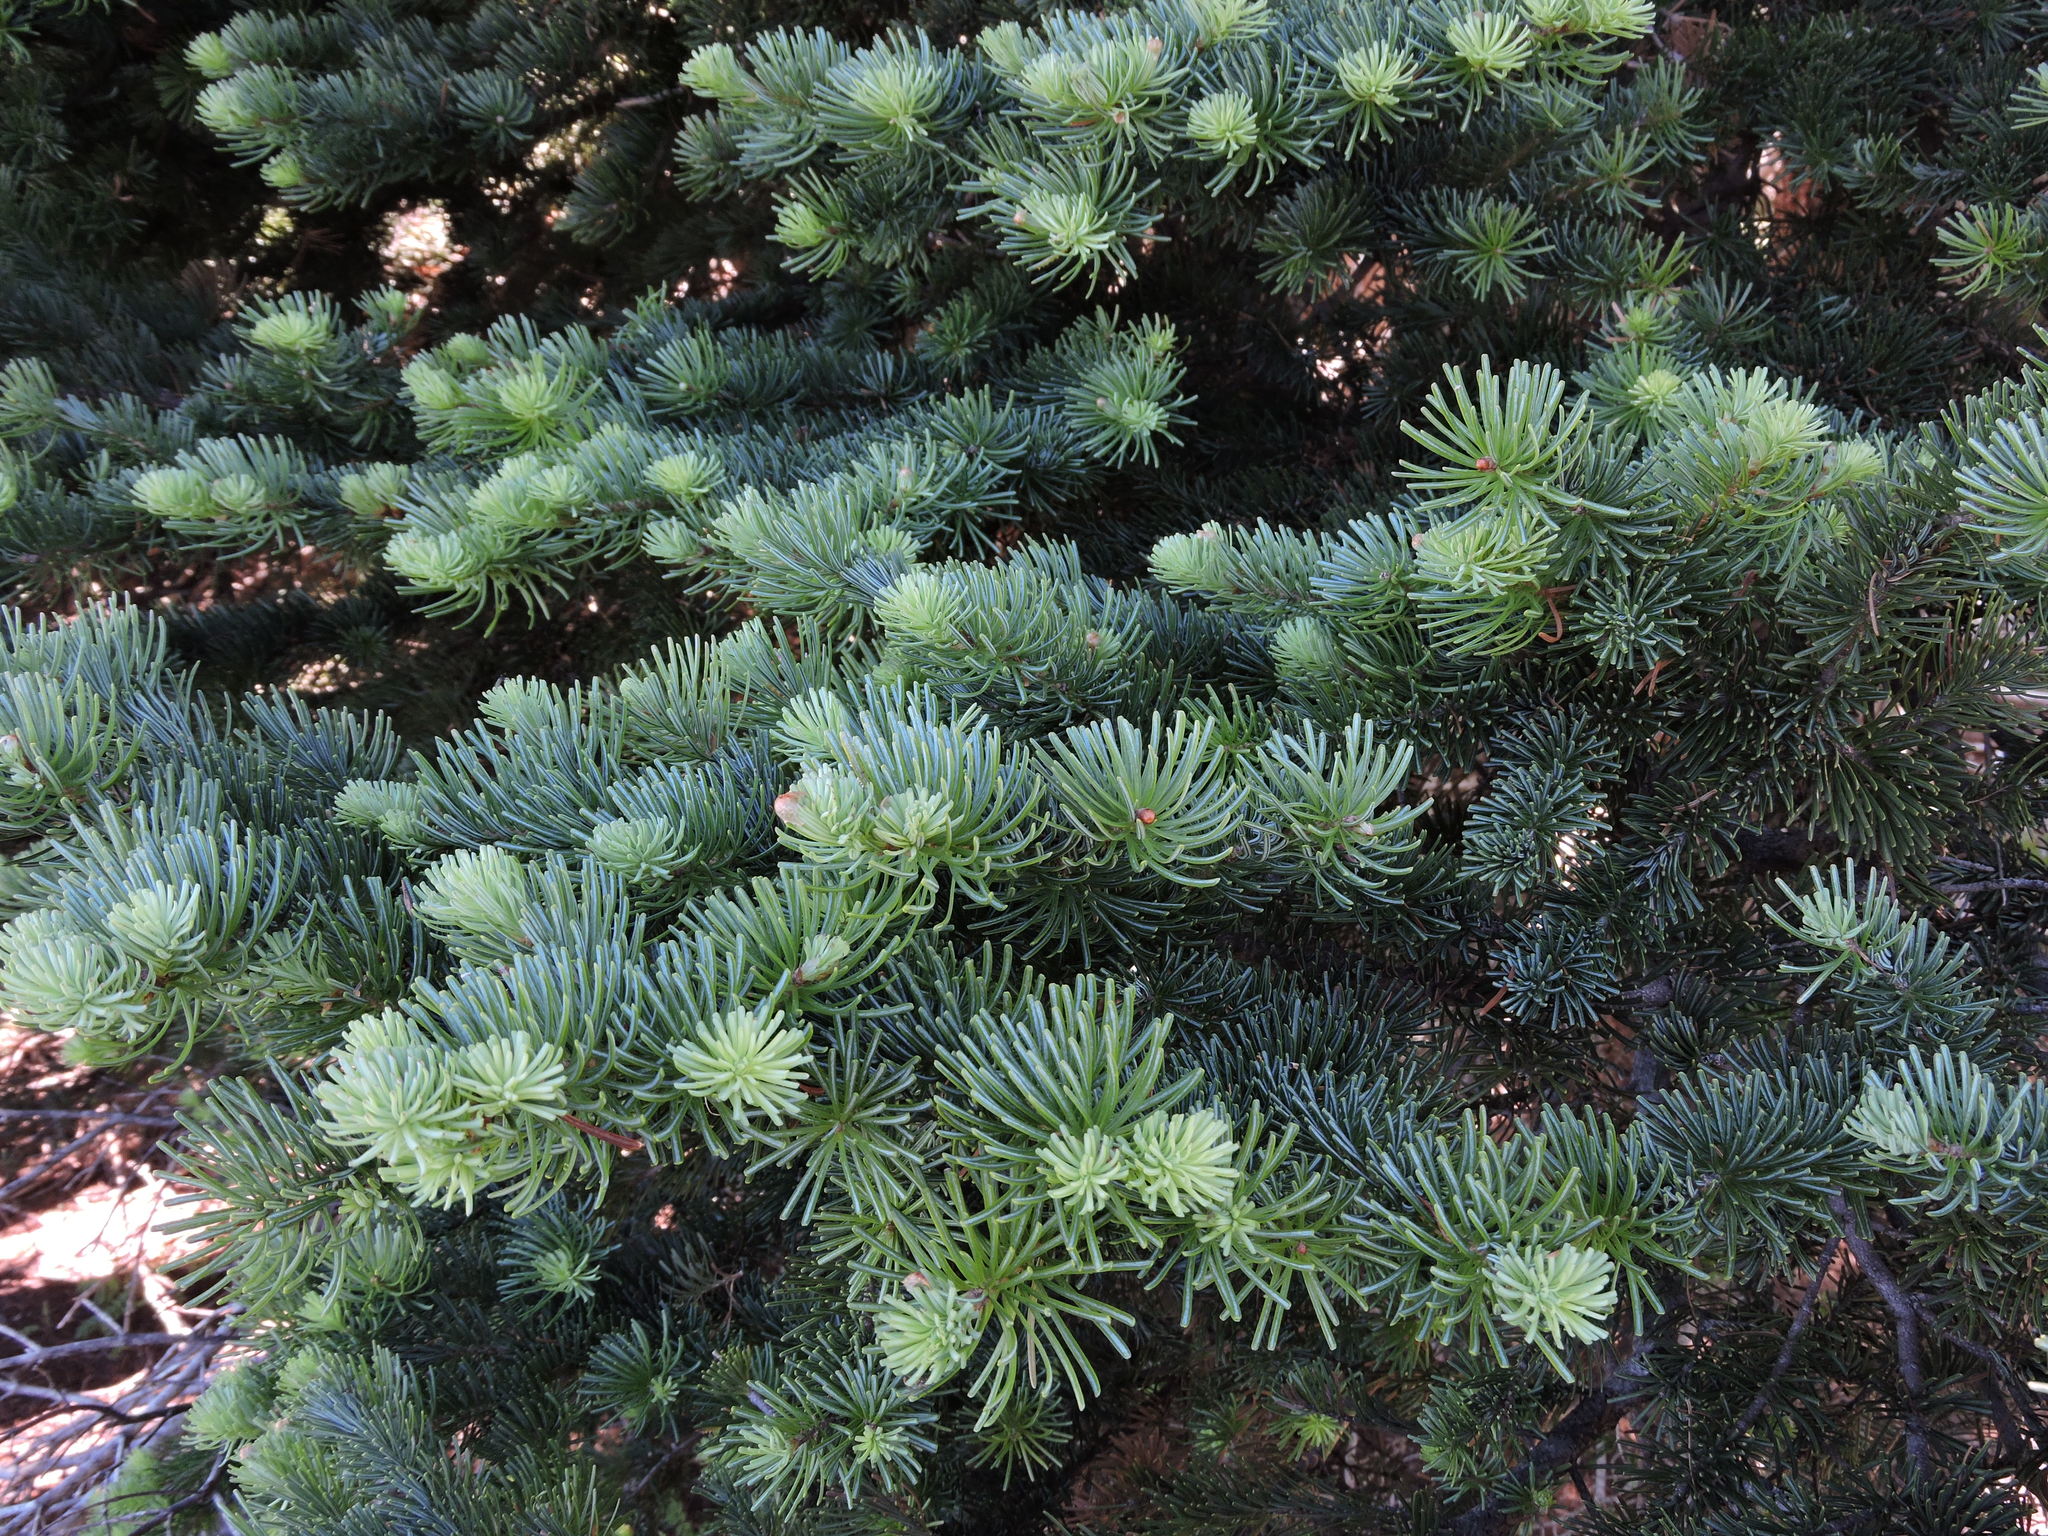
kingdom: Plantae
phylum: Tracheophyta
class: Pinopsida
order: Pinales
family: Pinaceae
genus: Abies
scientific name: Abies lasiocarpa
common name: Subalpine fir
